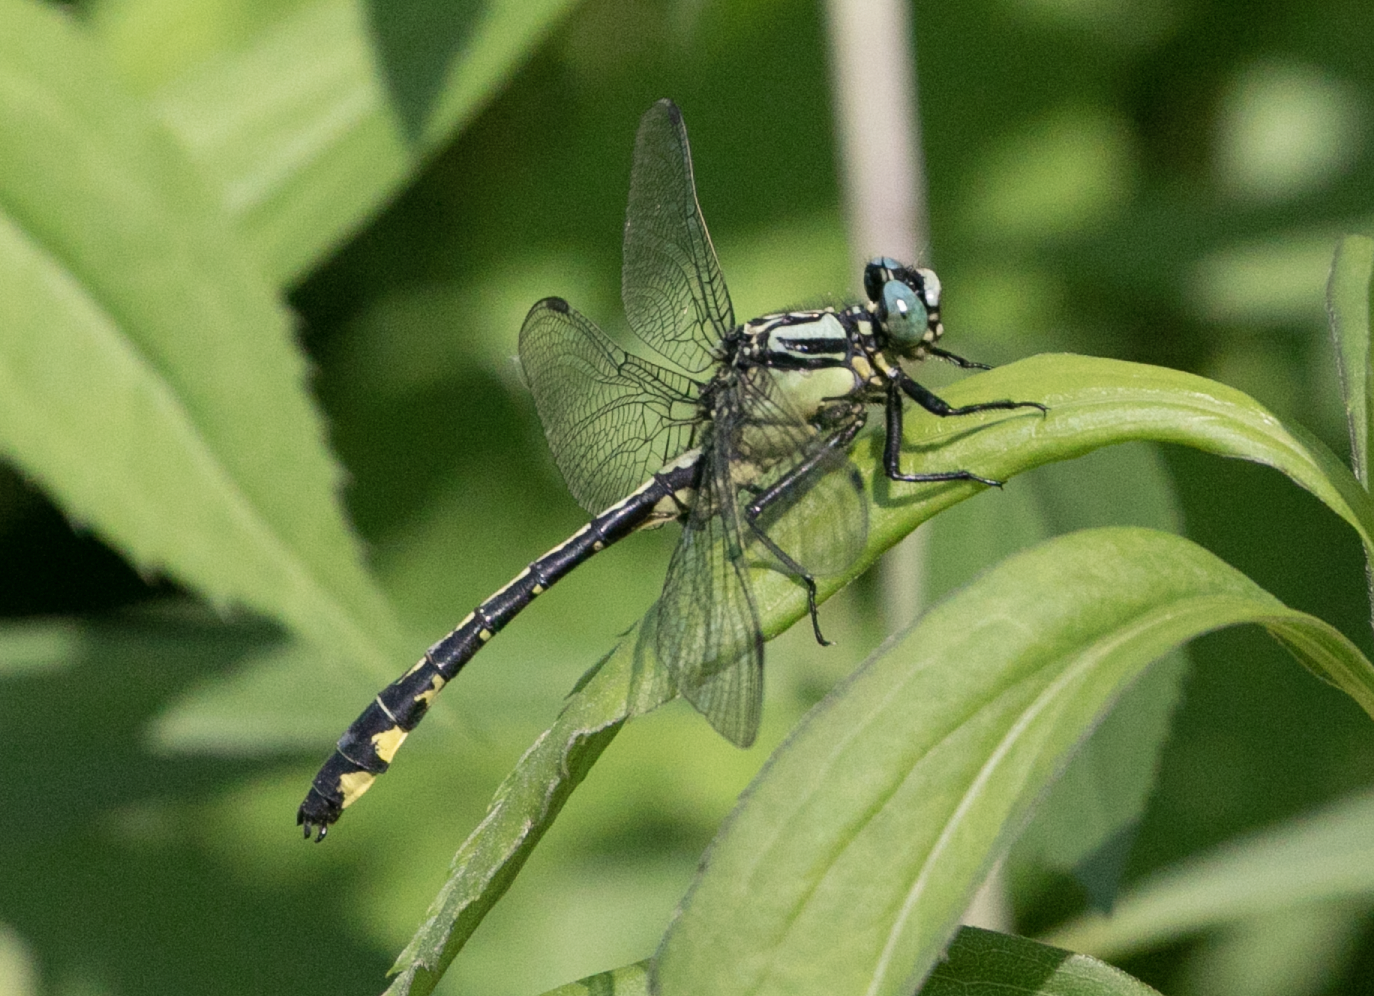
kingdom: Animalia
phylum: Arthropoda
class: Insecta
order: Odonata
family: Gomphidae
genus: Gomphus
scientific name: Gomphus vulgatissimus
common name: Club-tailed dragonfly
